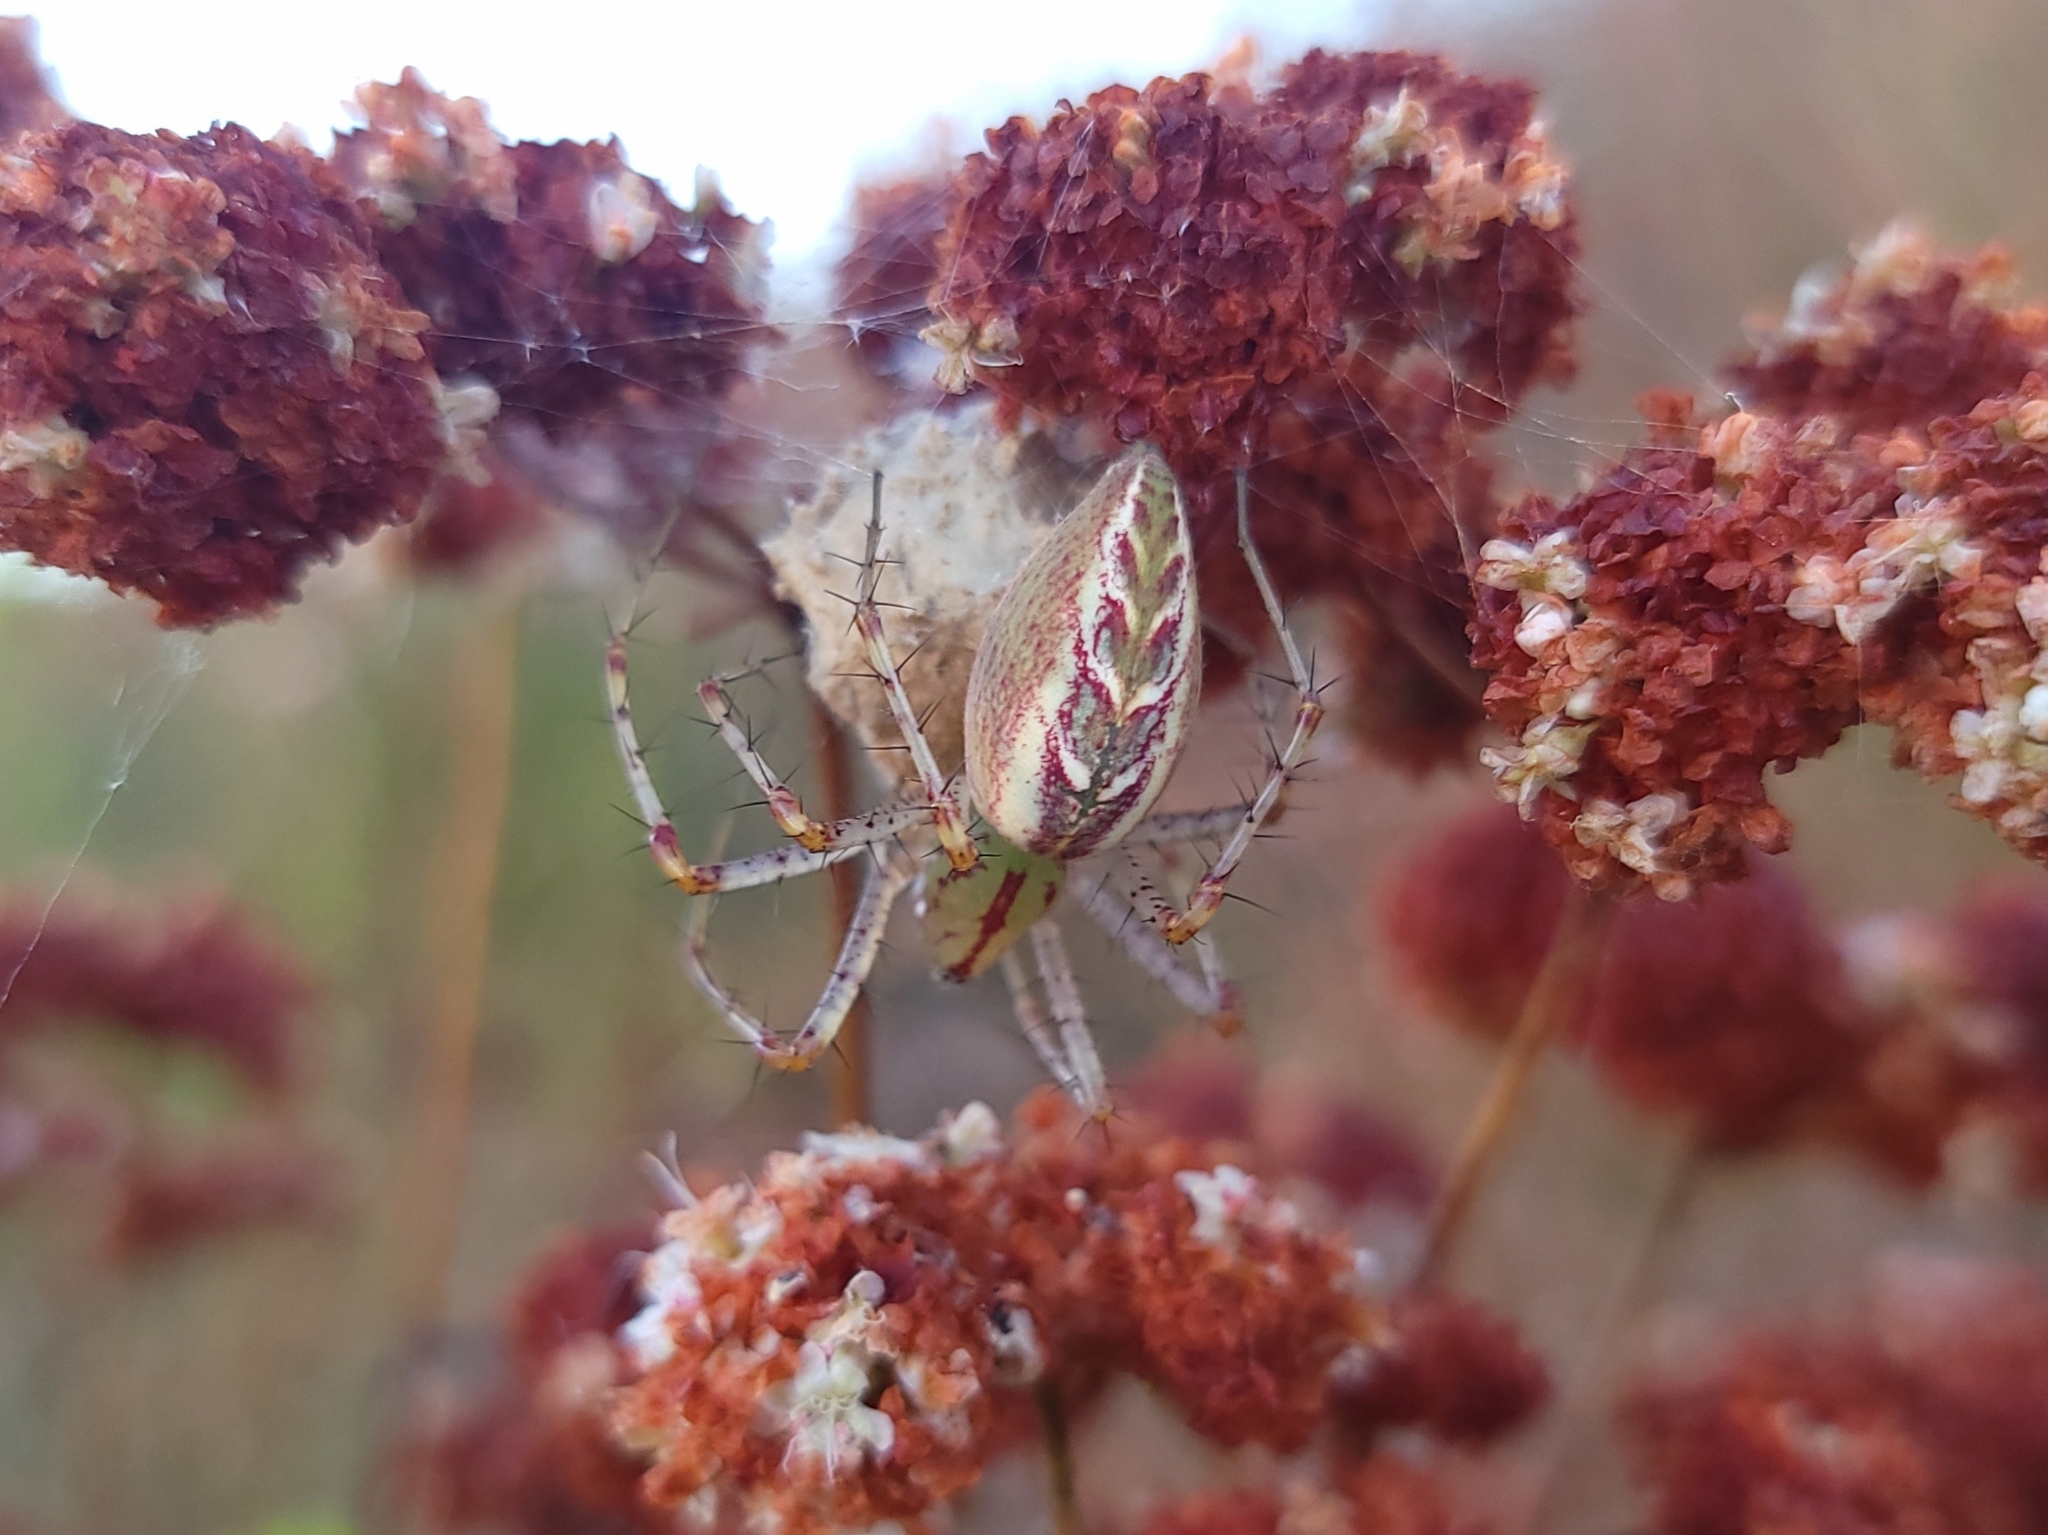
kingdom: Animalia
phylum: Arthropoda
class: Arachnida
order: Araneae
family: Oxyopidae
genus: Peucetia
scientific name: Peucetia viridans
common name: Lynx spiders
